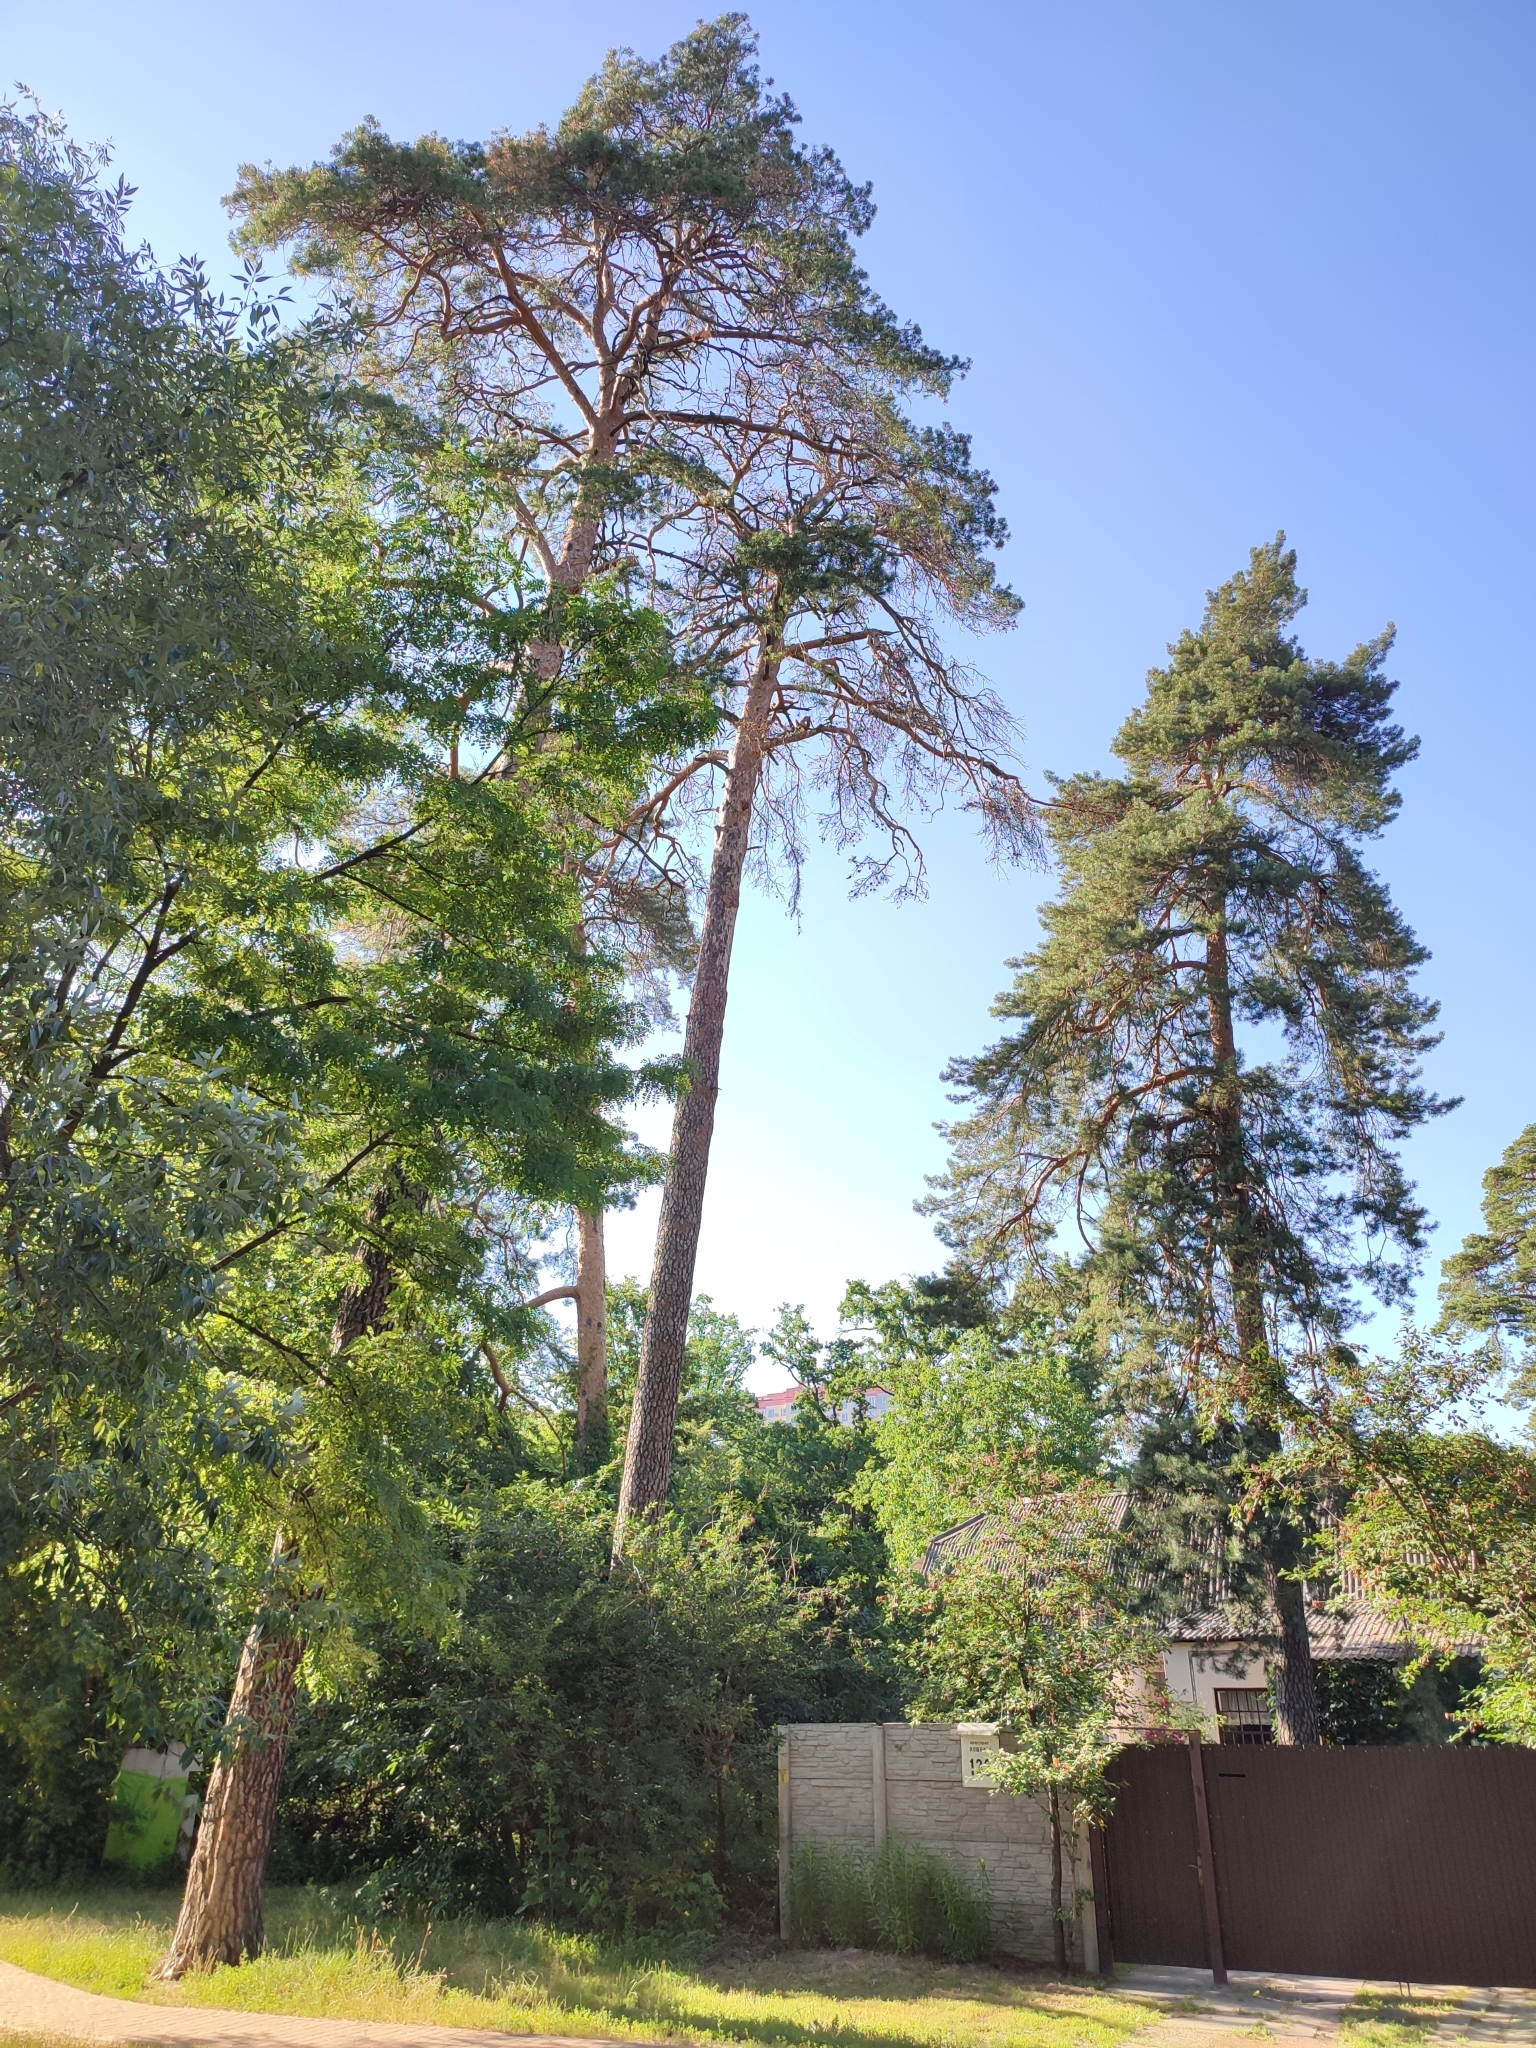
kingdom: Plantae
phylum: Tracheophyta
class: Pinopsida
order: Pinales
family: Pinaceae
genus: Pinus
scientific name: Pinus sylvestris
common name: Scots pine
